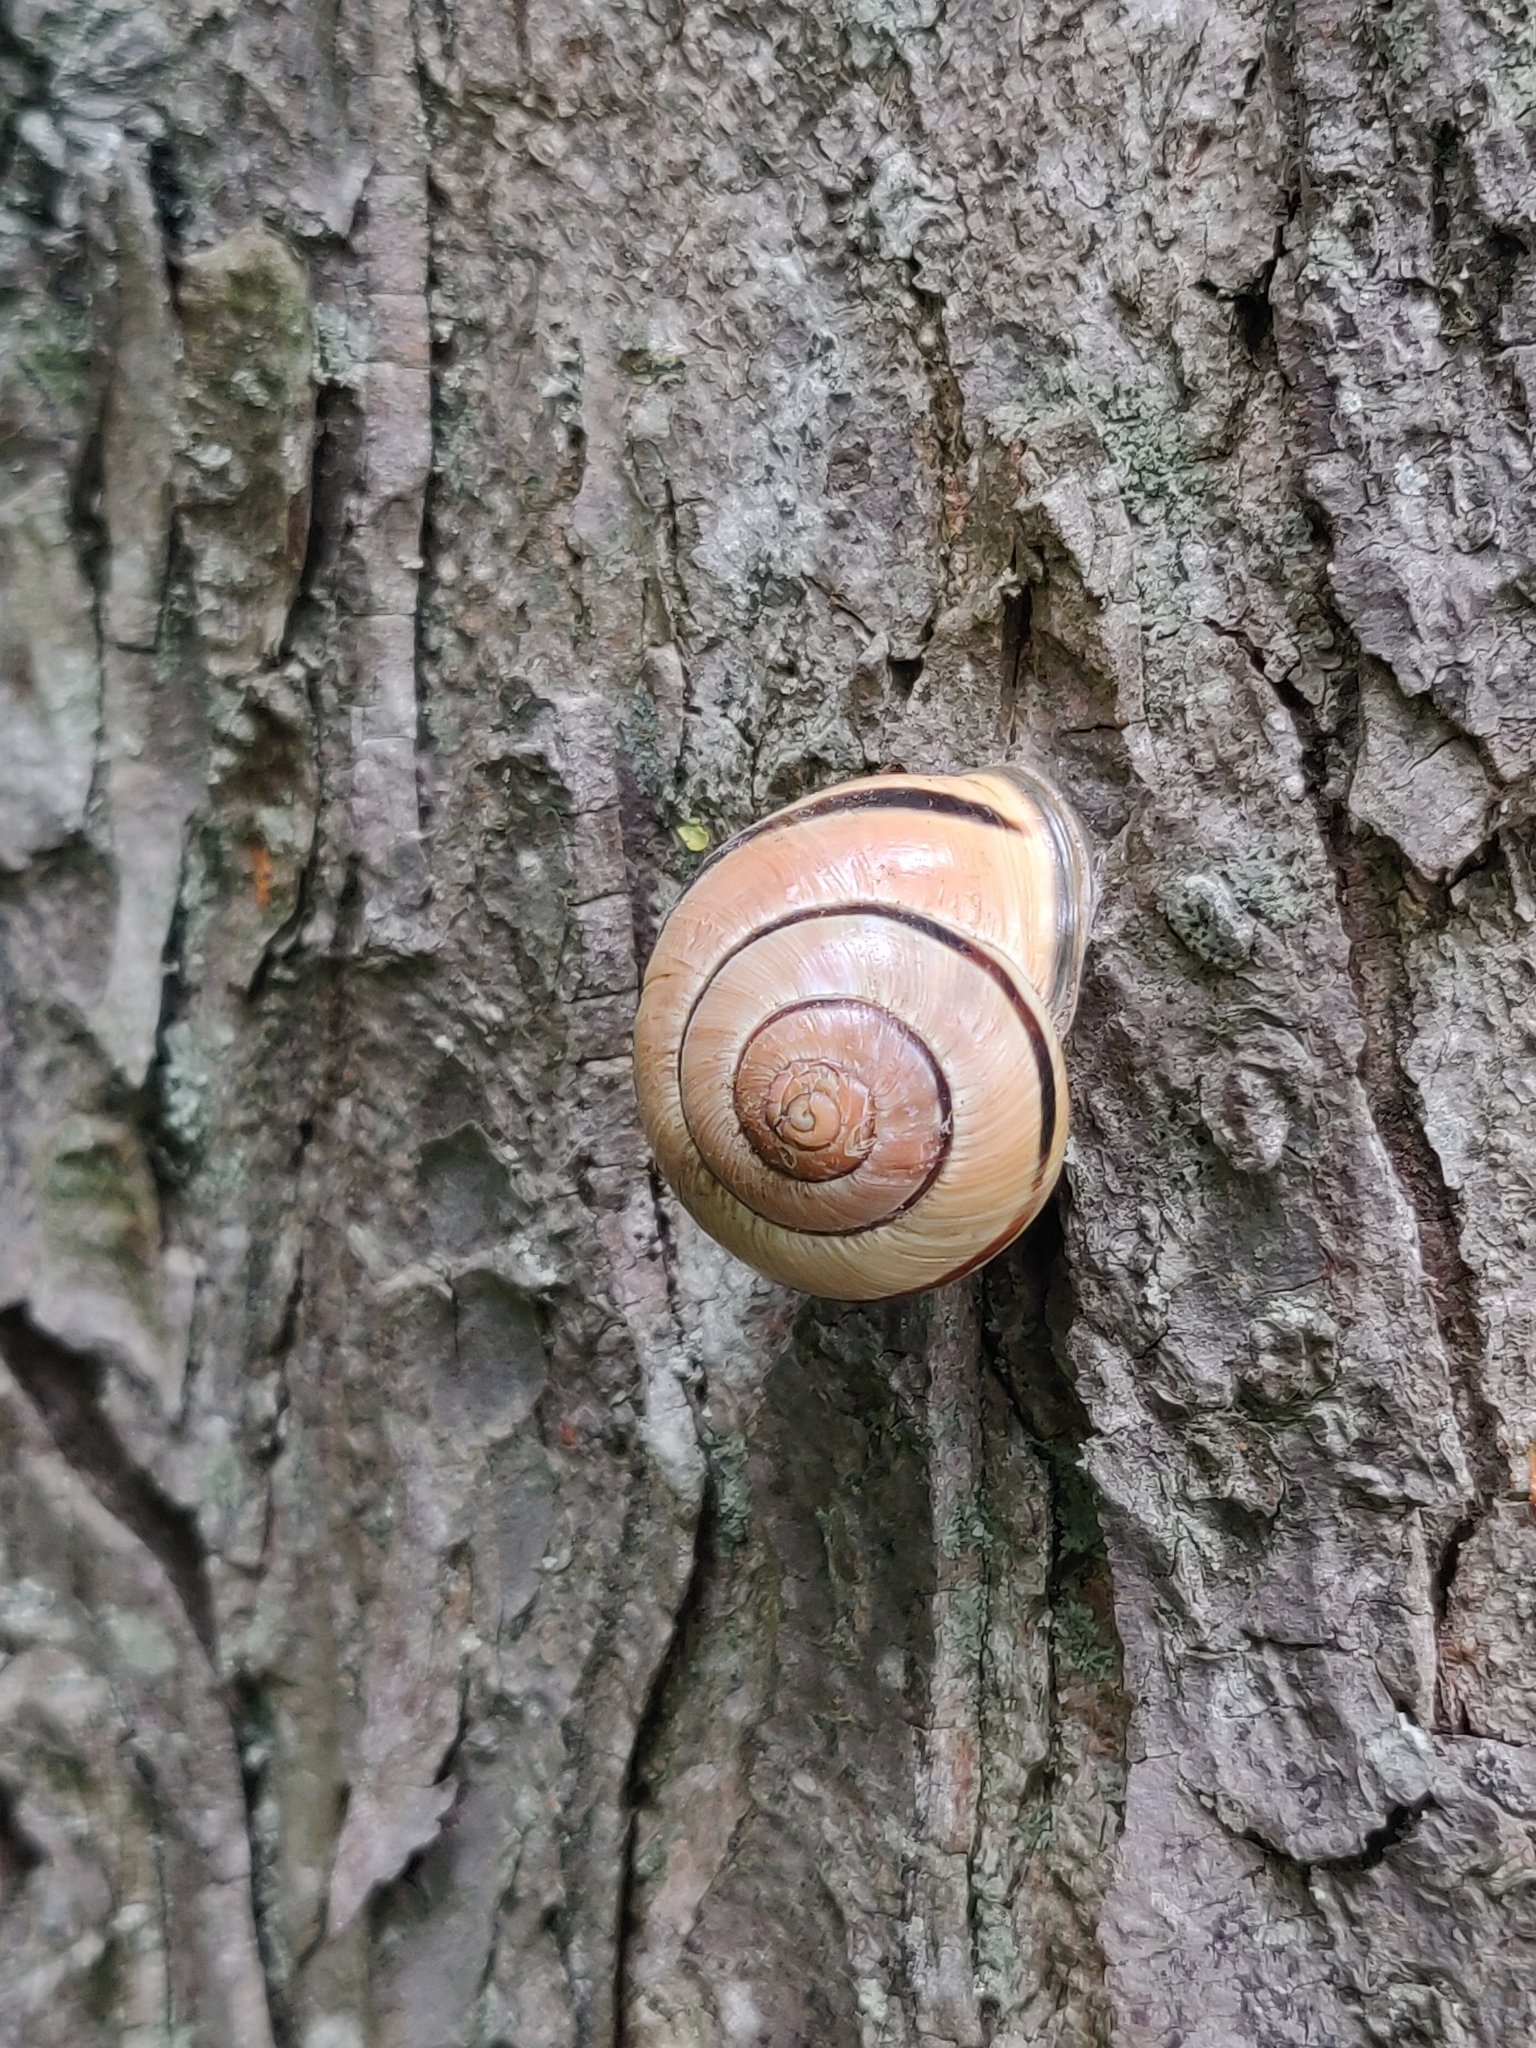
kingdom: Animalia
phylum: Mollusca
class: Gastropoda
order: Stylommatophora
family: Helicidae
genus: Cepaea
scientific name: Cepaea nemoralis
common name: Grovesnail
